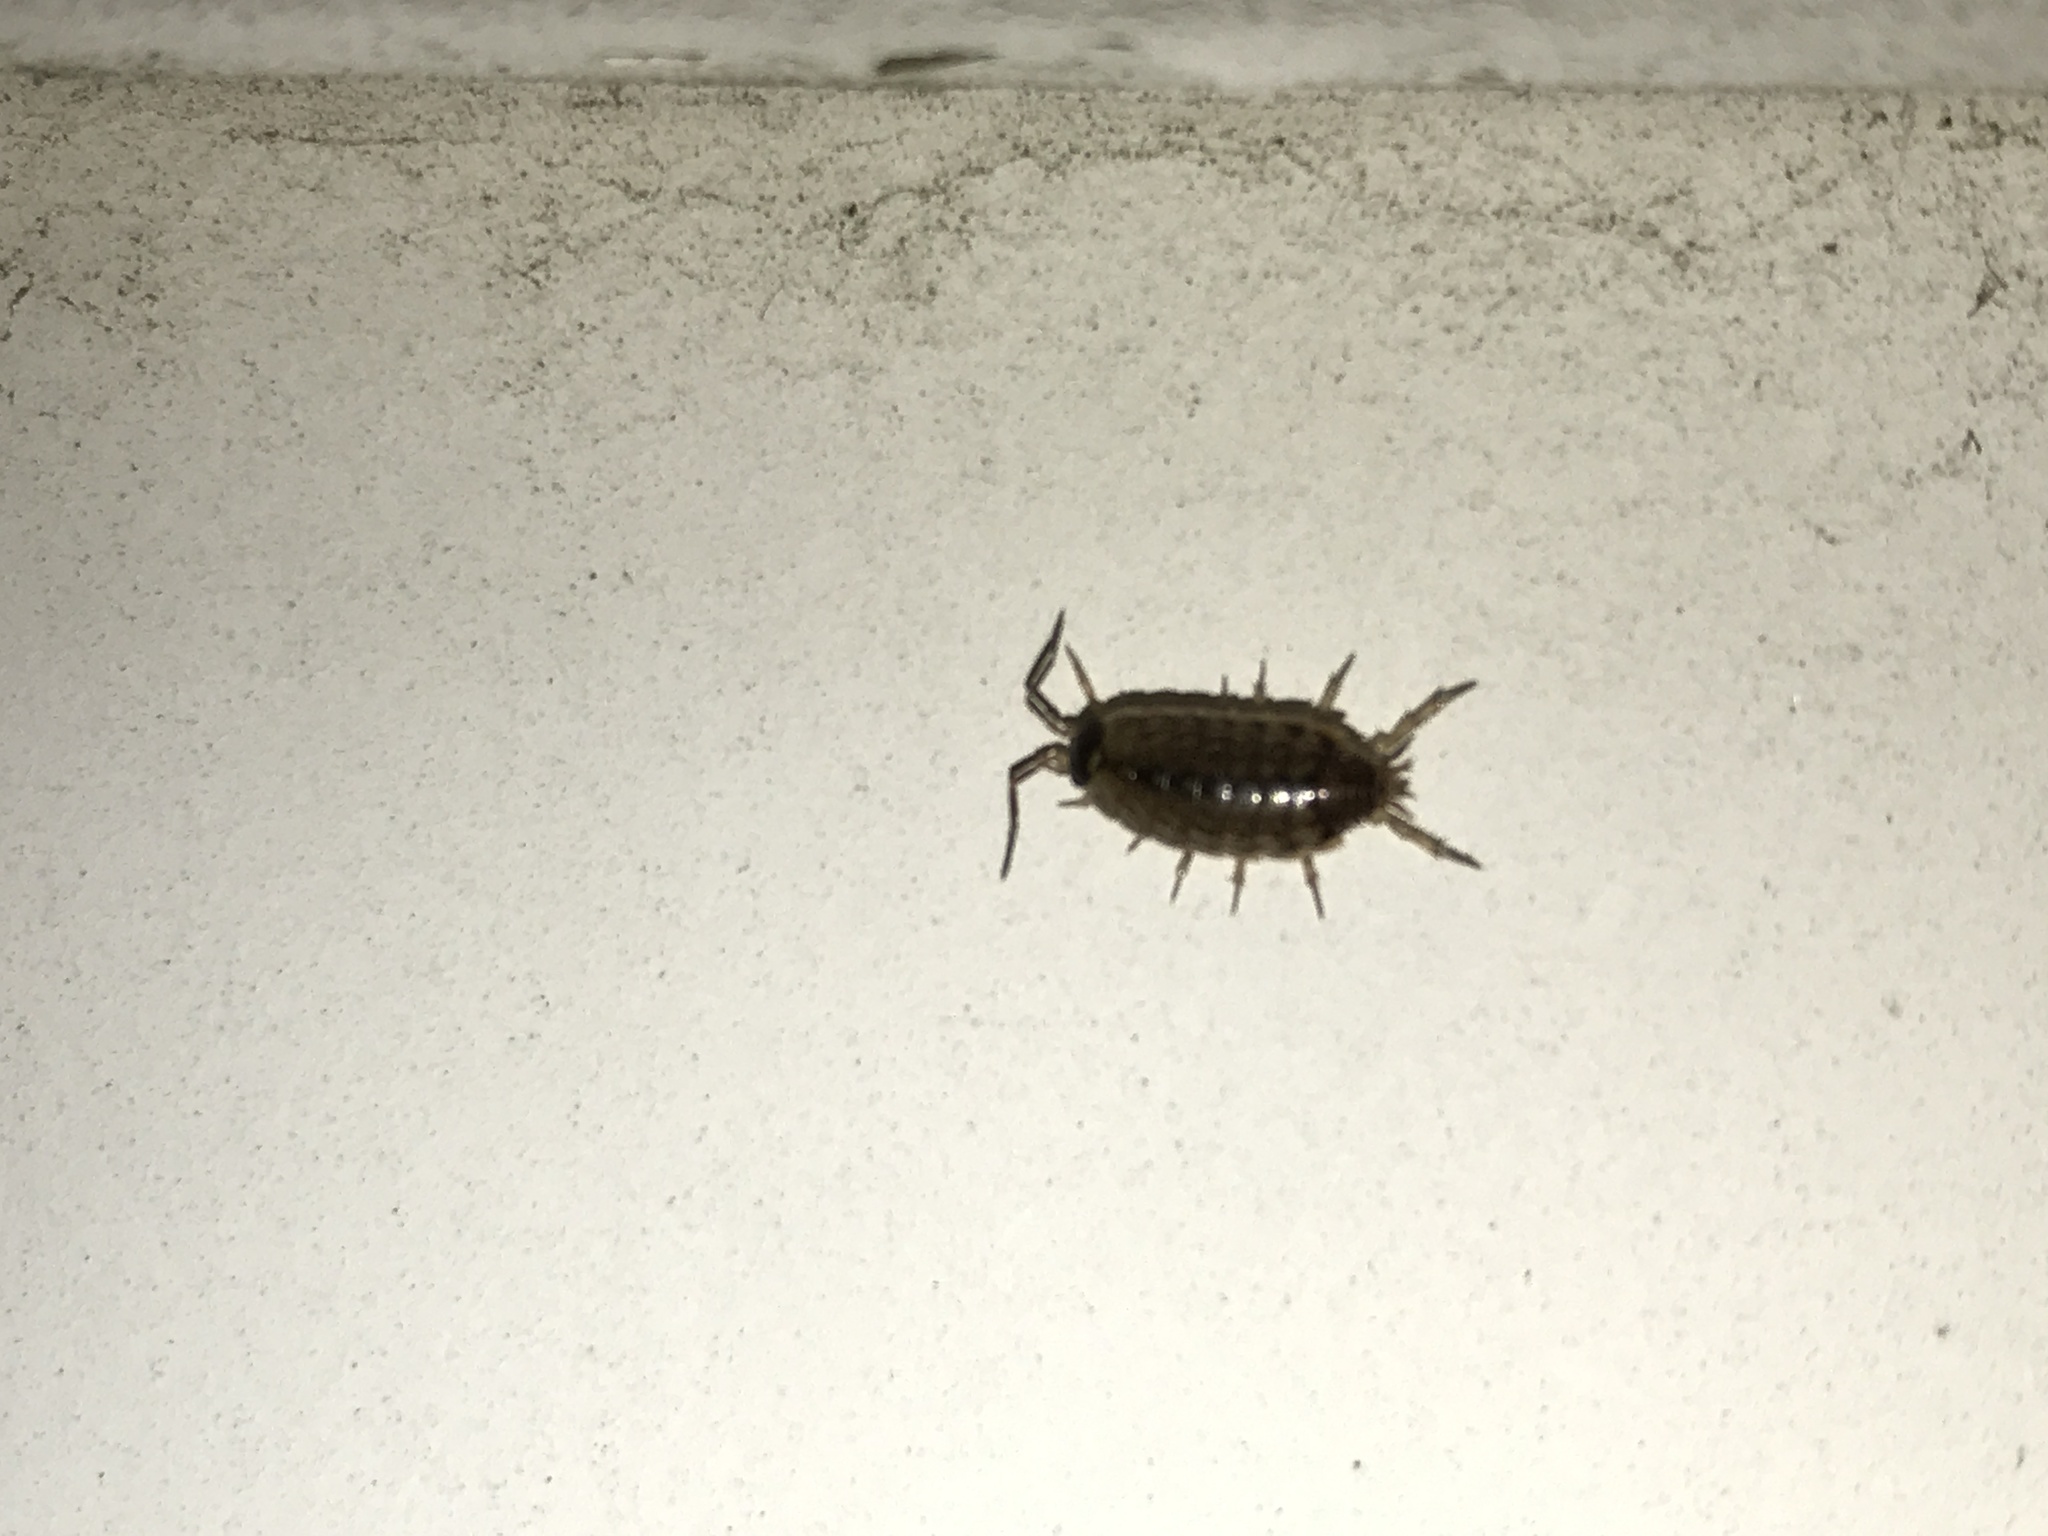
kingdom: Animalia
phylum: Arthropoda
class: Malacostraca
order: Isopoda
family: Philosciidae
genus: Philoscia
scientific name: Philoscia muscorum
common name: Common striped woodlouse
